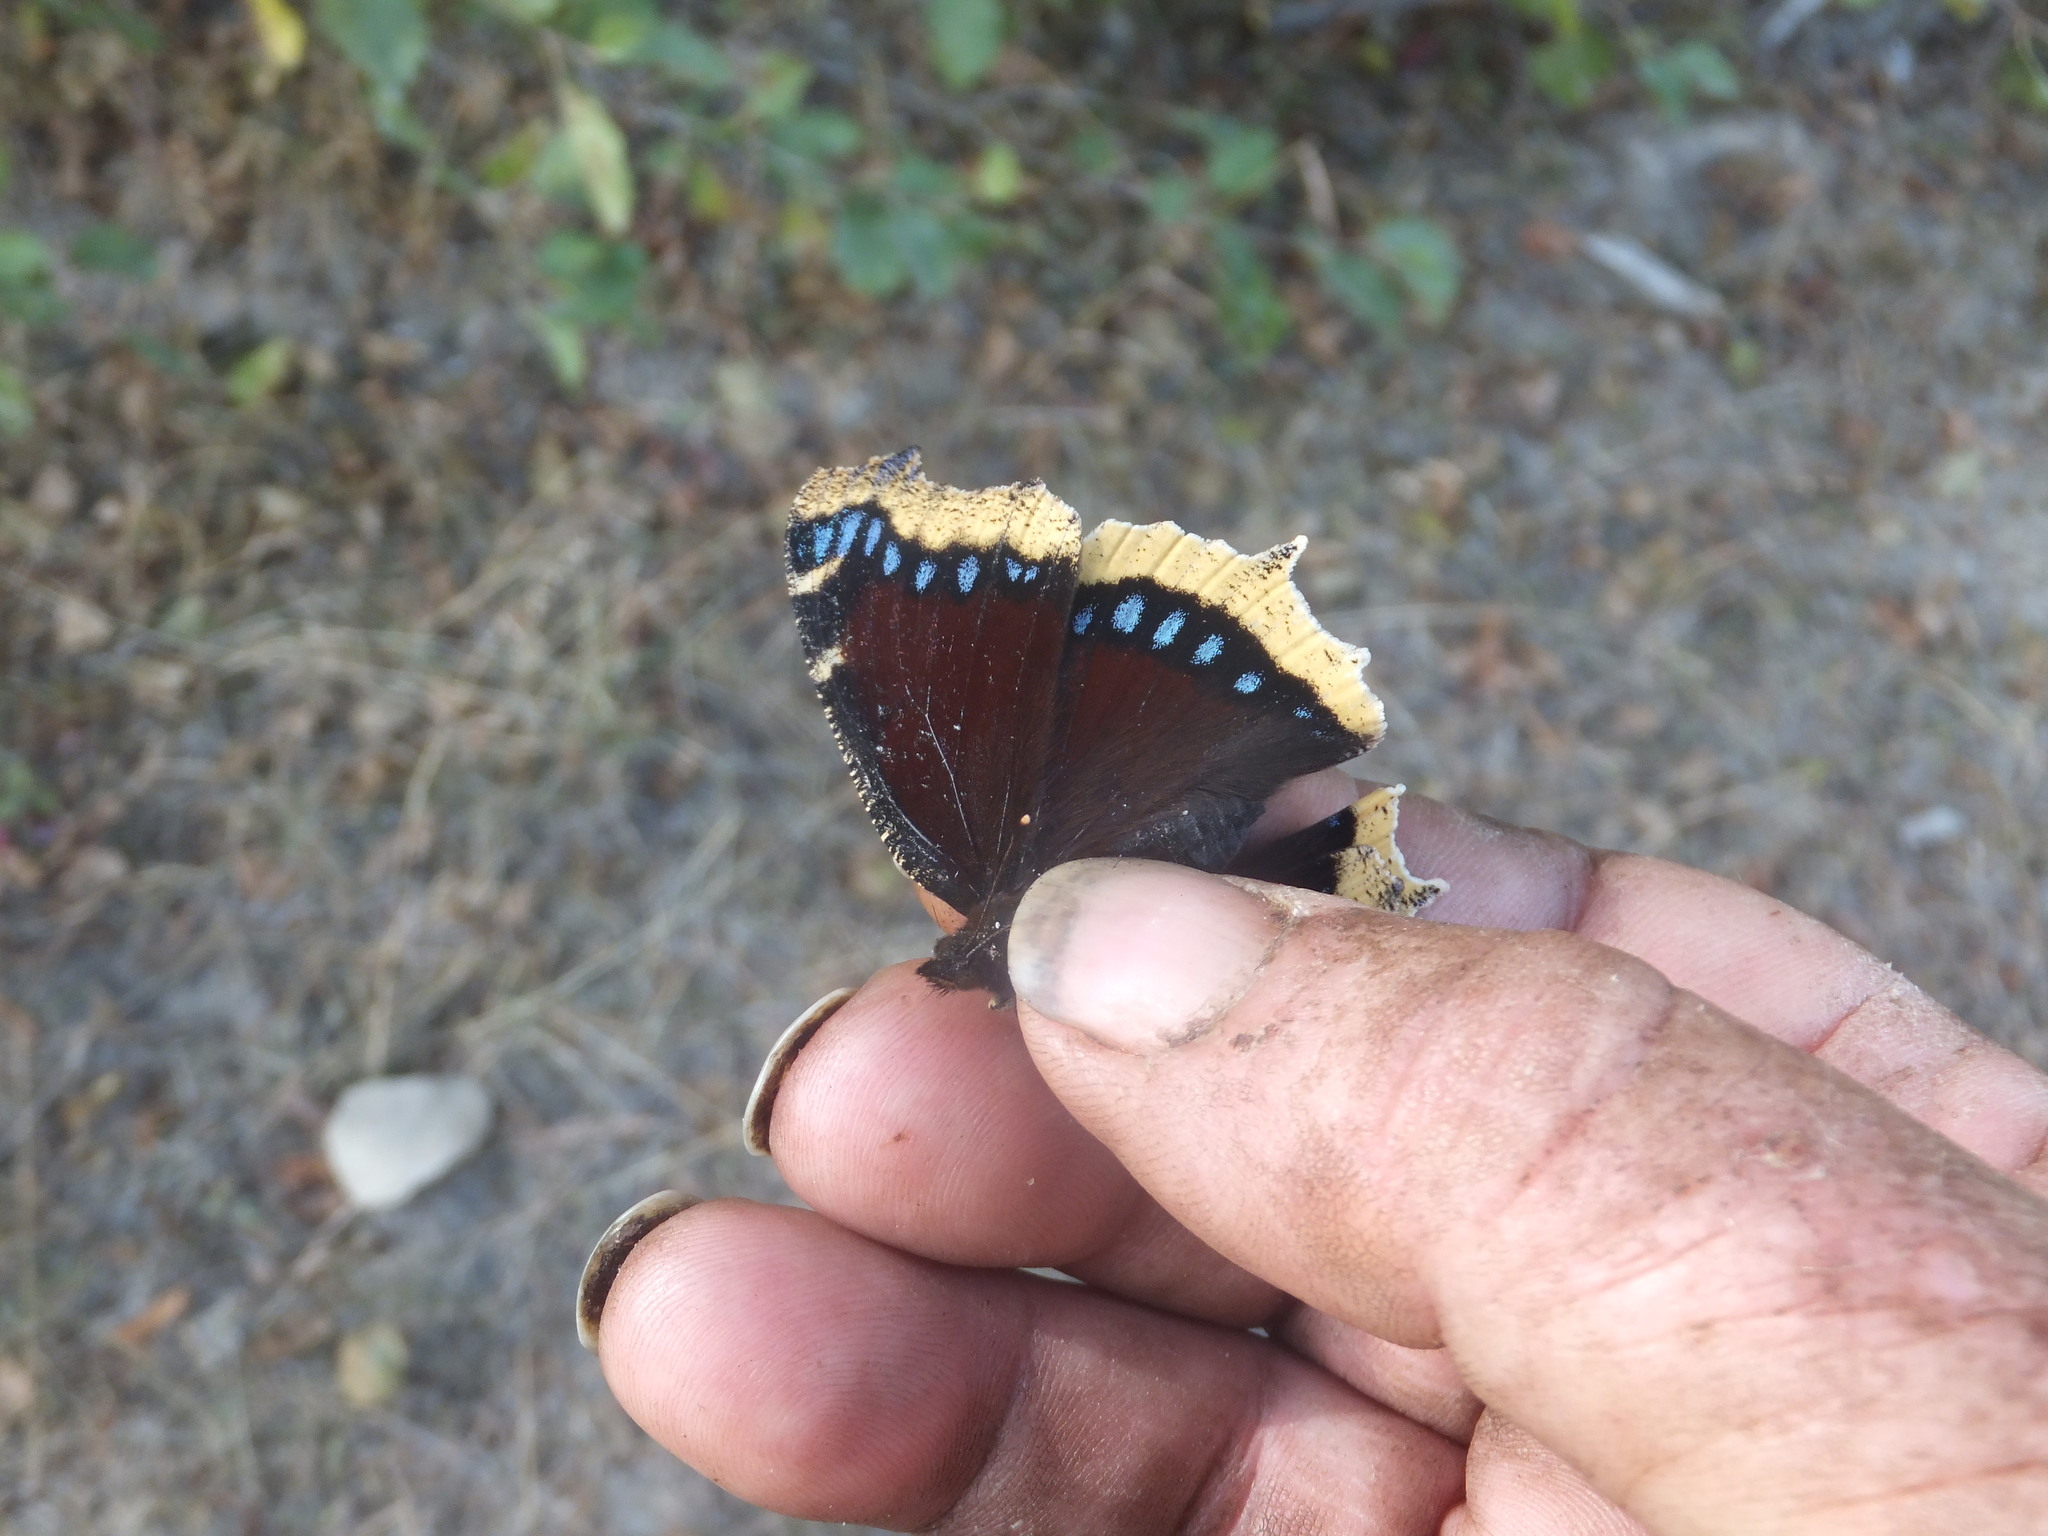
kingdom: Animalia
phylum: Arthropoda
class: Insecta
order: Lepidoptera
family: Nymphalidae
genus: Nymphalis
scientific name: Nymphalis antiopa
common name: Camberwell beauty
